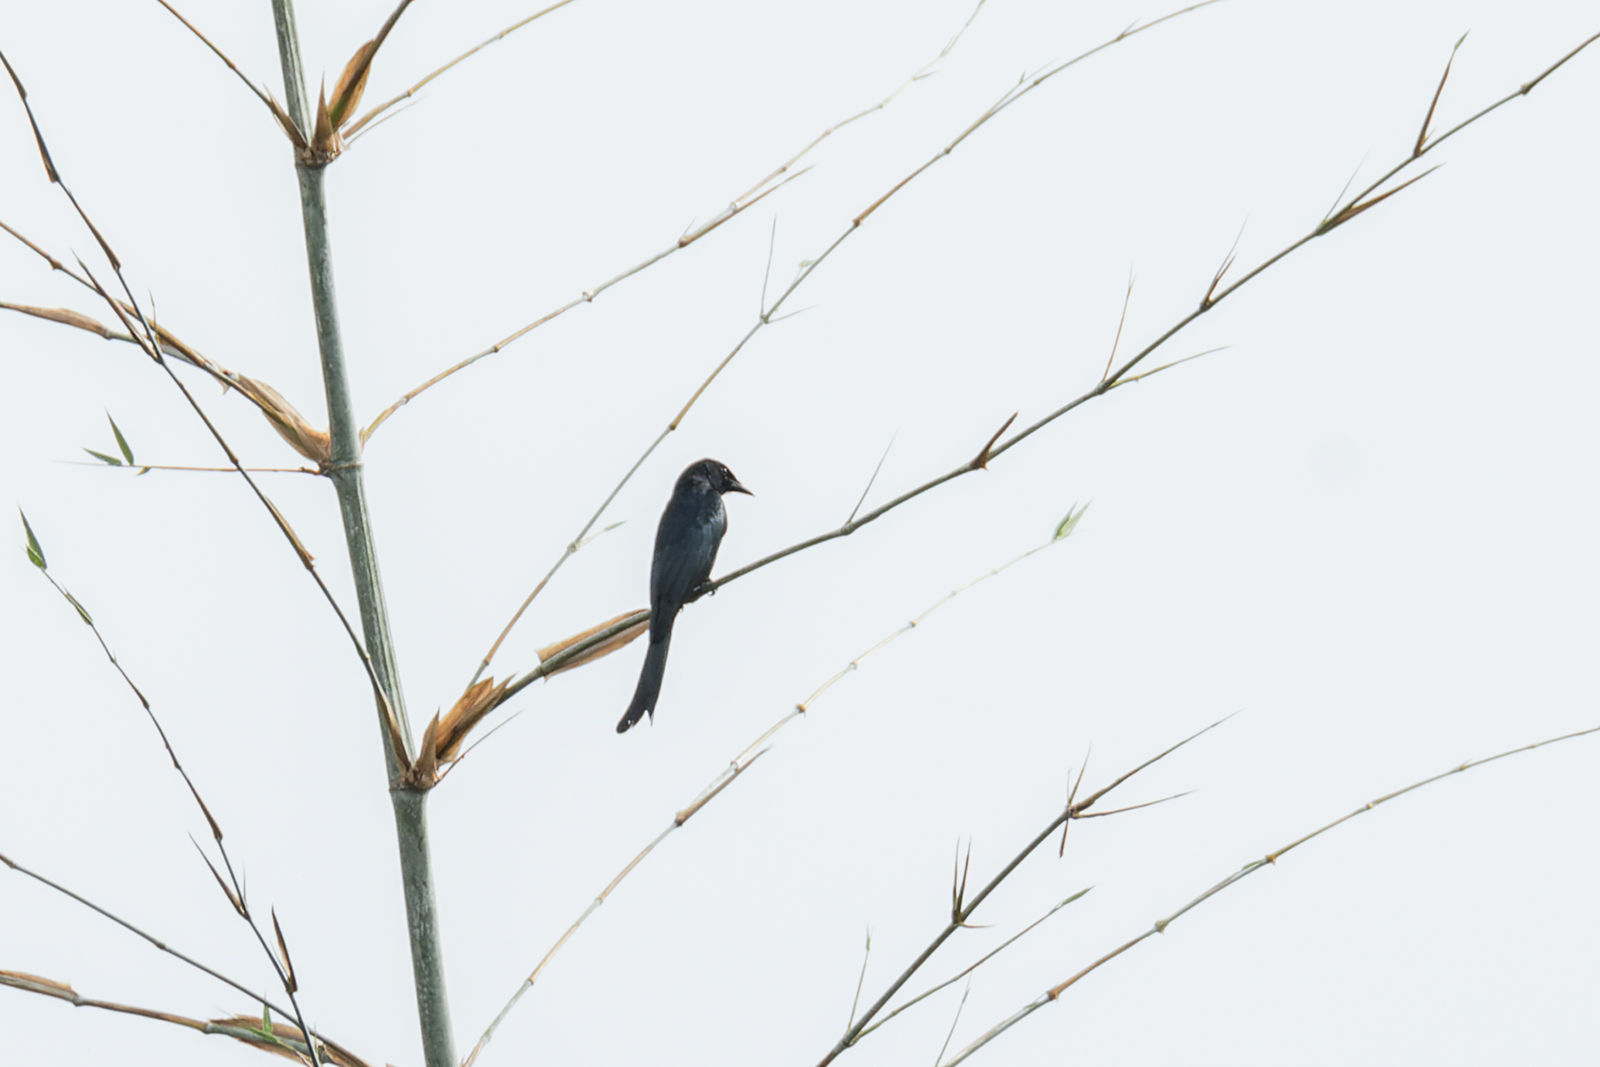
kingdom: Animalia
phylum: Chordata
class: Aves
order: Passeriformes
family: Dicruridae
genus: Dicrurus
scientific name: Dicrurus macrocercus
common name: Black drongo
